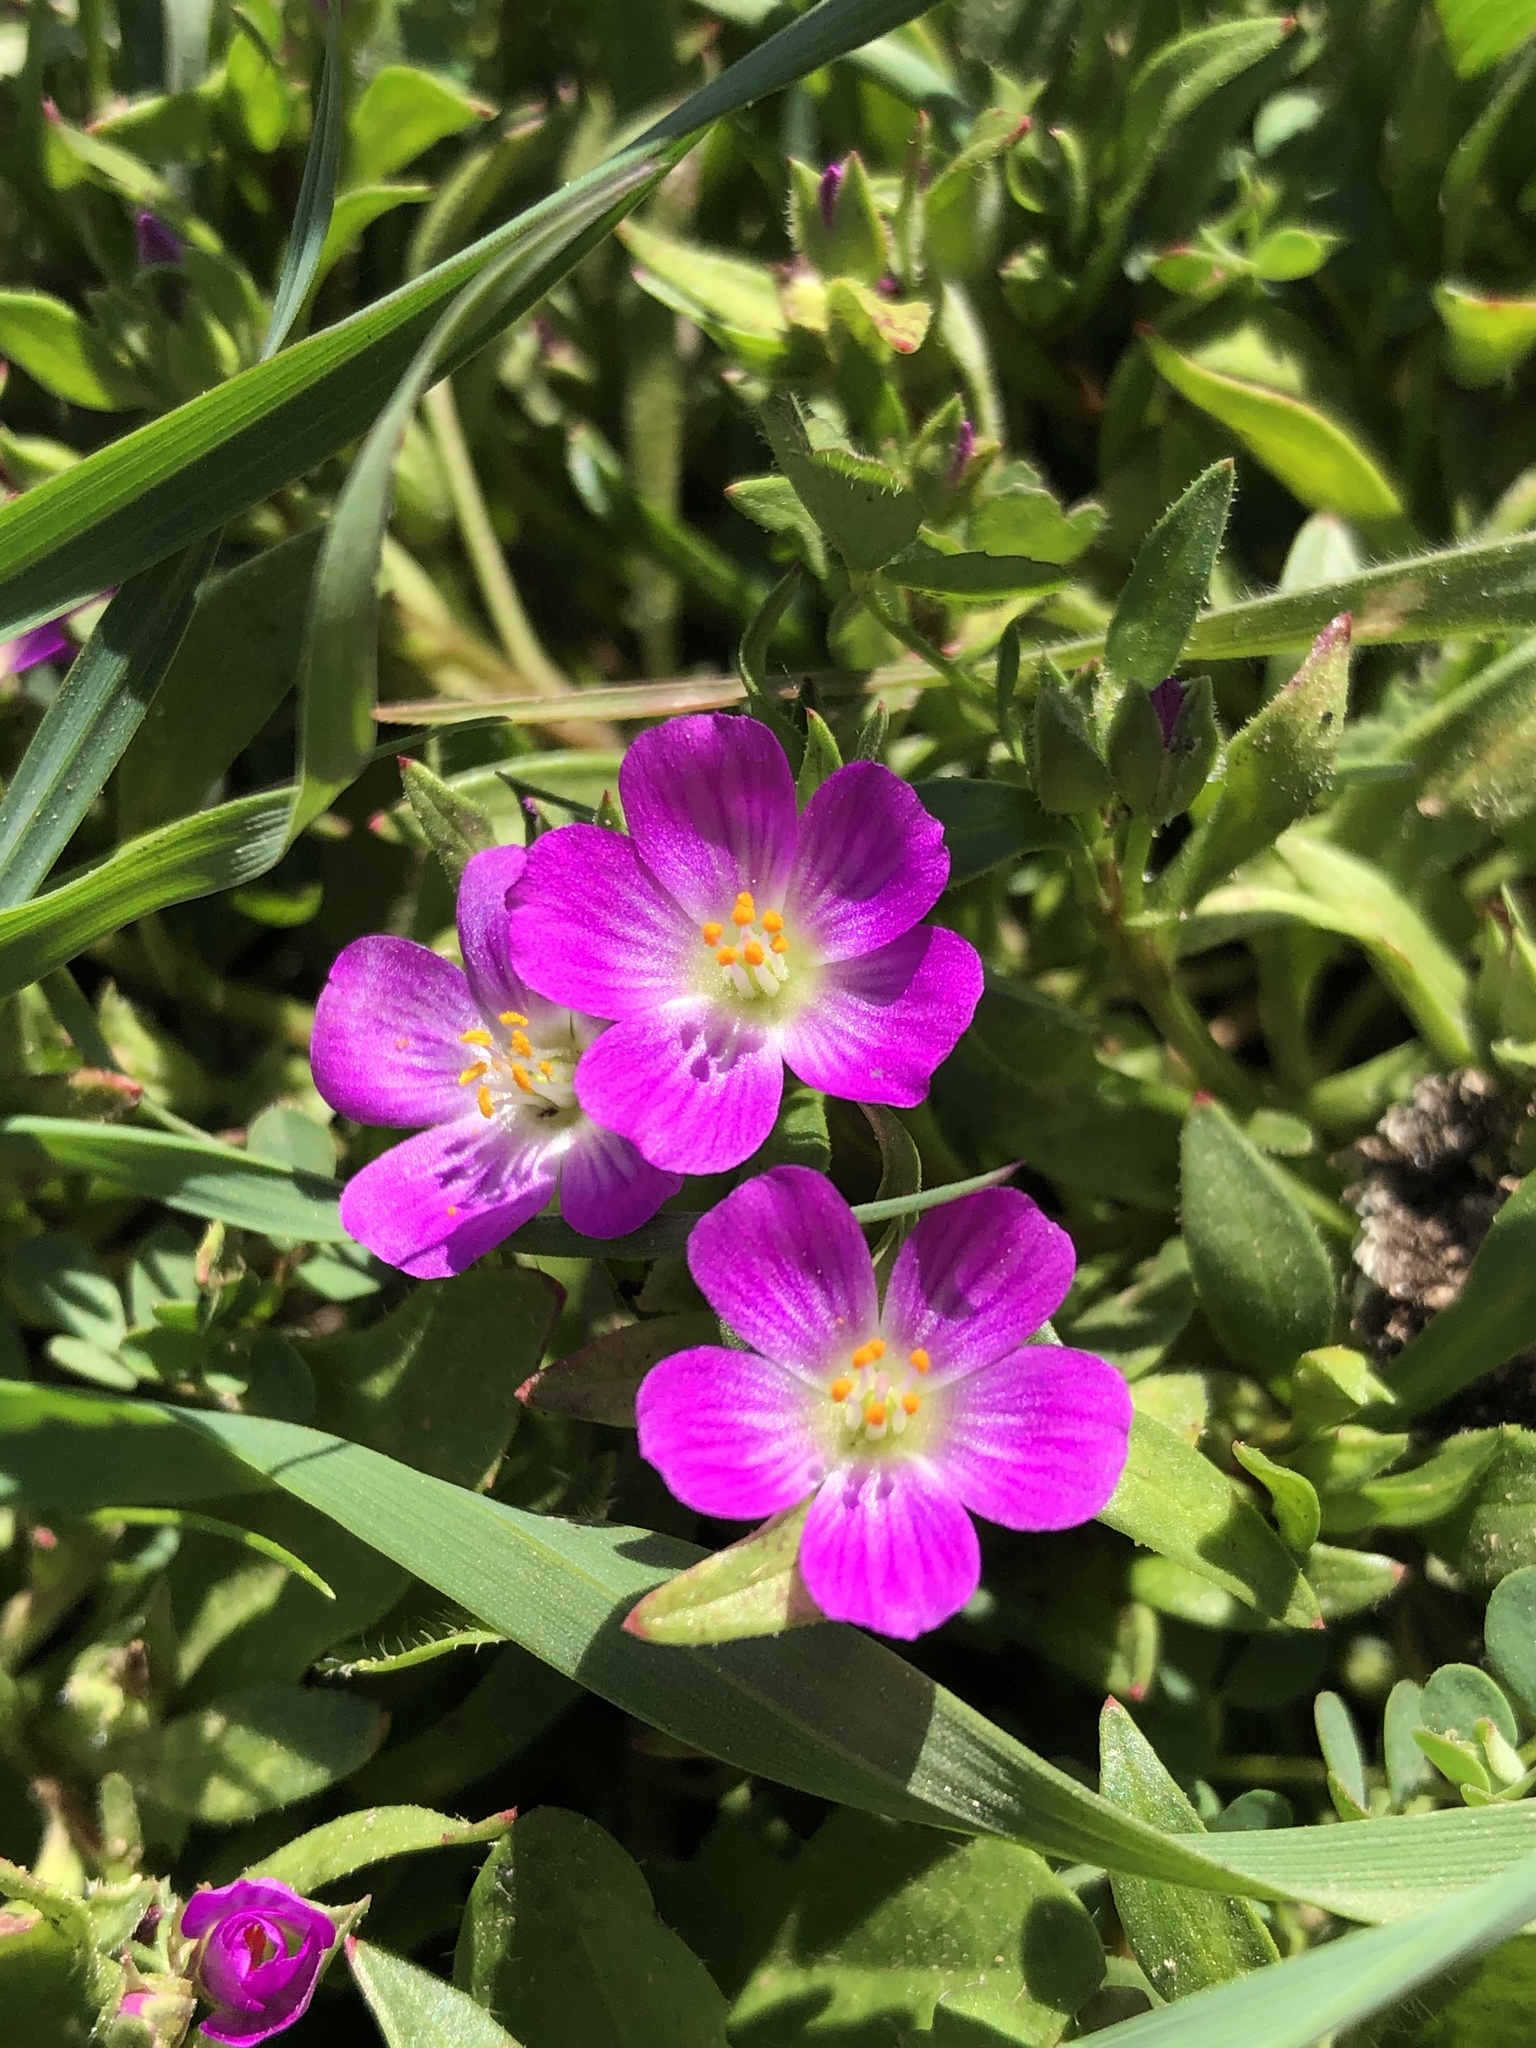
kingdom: Plantae
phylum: Tracheophyta
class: Magnoliopsida
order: Caryophyllales
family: Montiaceae
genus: Calandrinia
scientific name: Calandrinia menziesii
